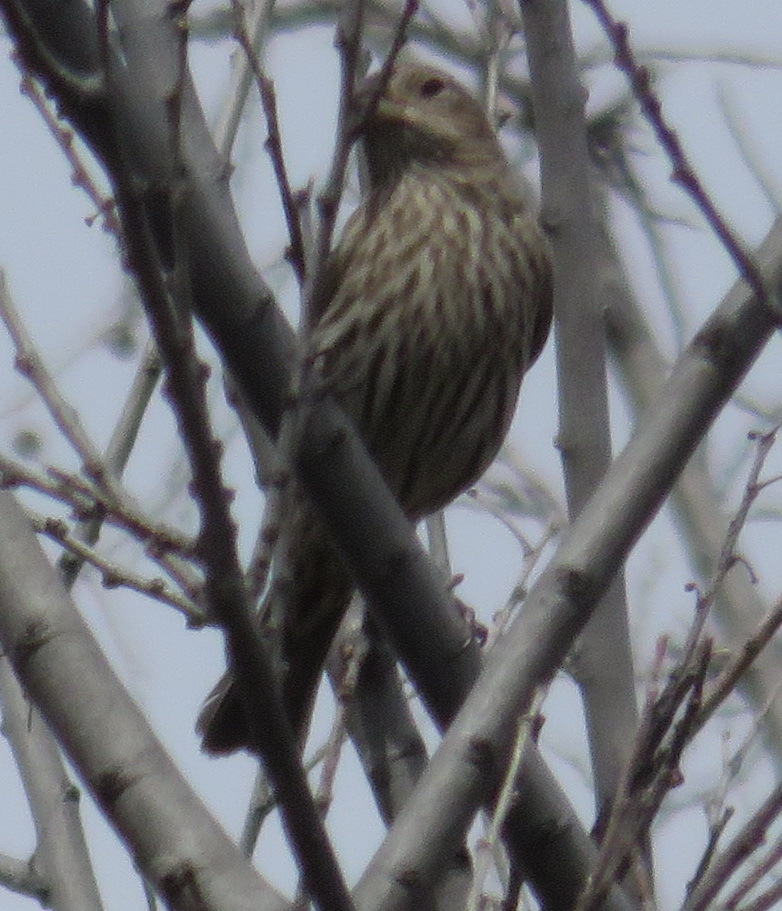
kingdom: Animalia
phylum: Chordata
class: Aves
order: Passeriformes
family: Fringillidae
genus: Haemorhous
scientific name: Haemorhous mexicanus
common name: House finch
